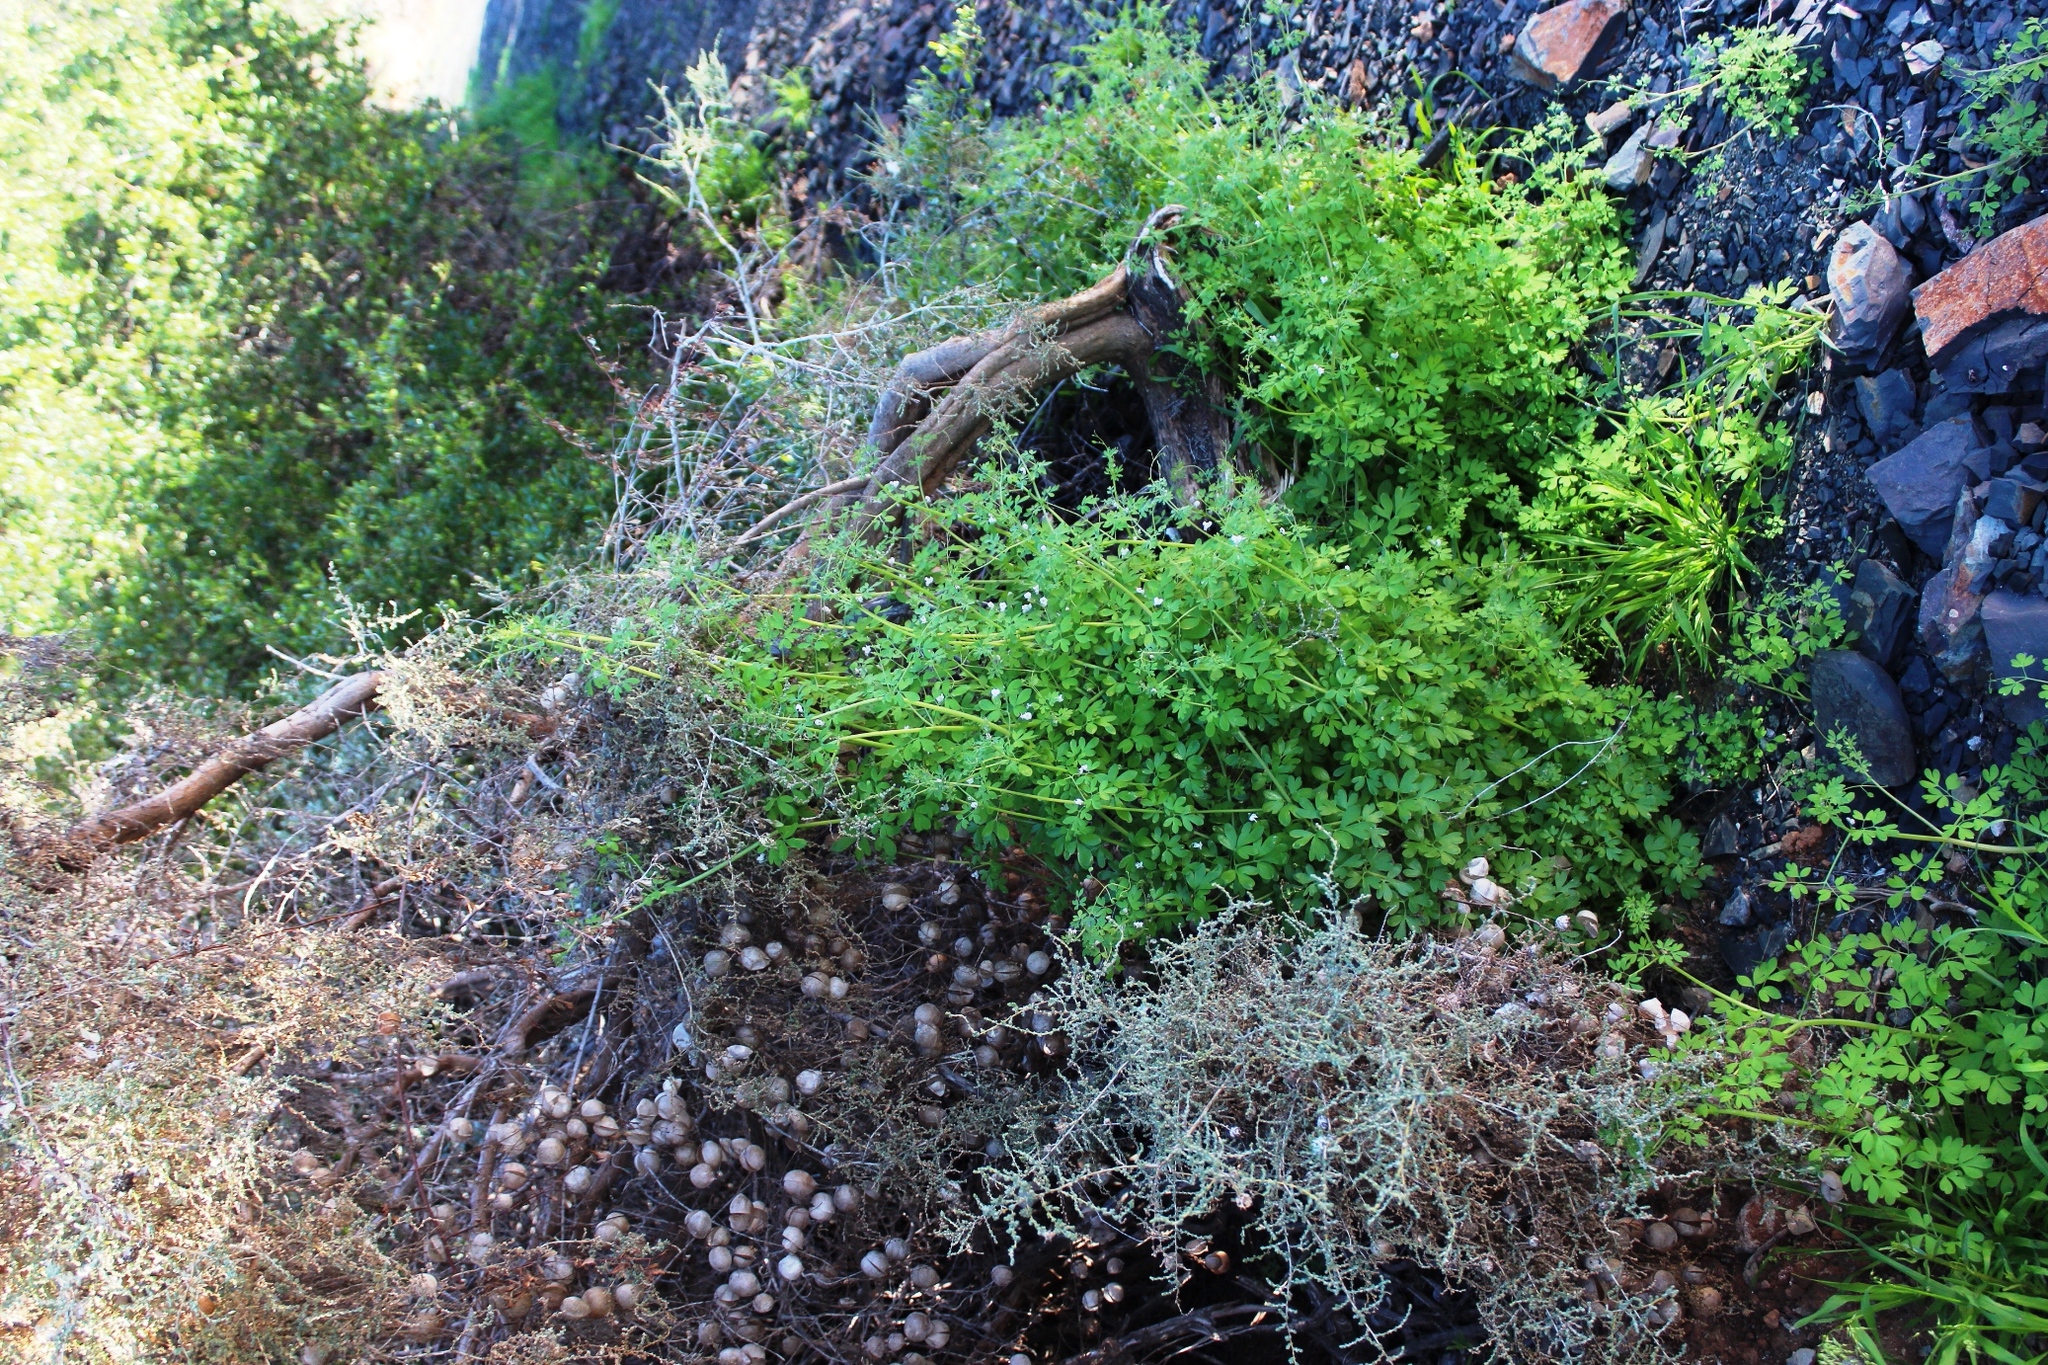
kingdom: Plantae
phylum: Tracheophyta
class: Magnoliopsida
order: Ranunculales
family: Papaveraceae
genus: Cysticapnos
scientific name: Cysticapnos vesicaria
